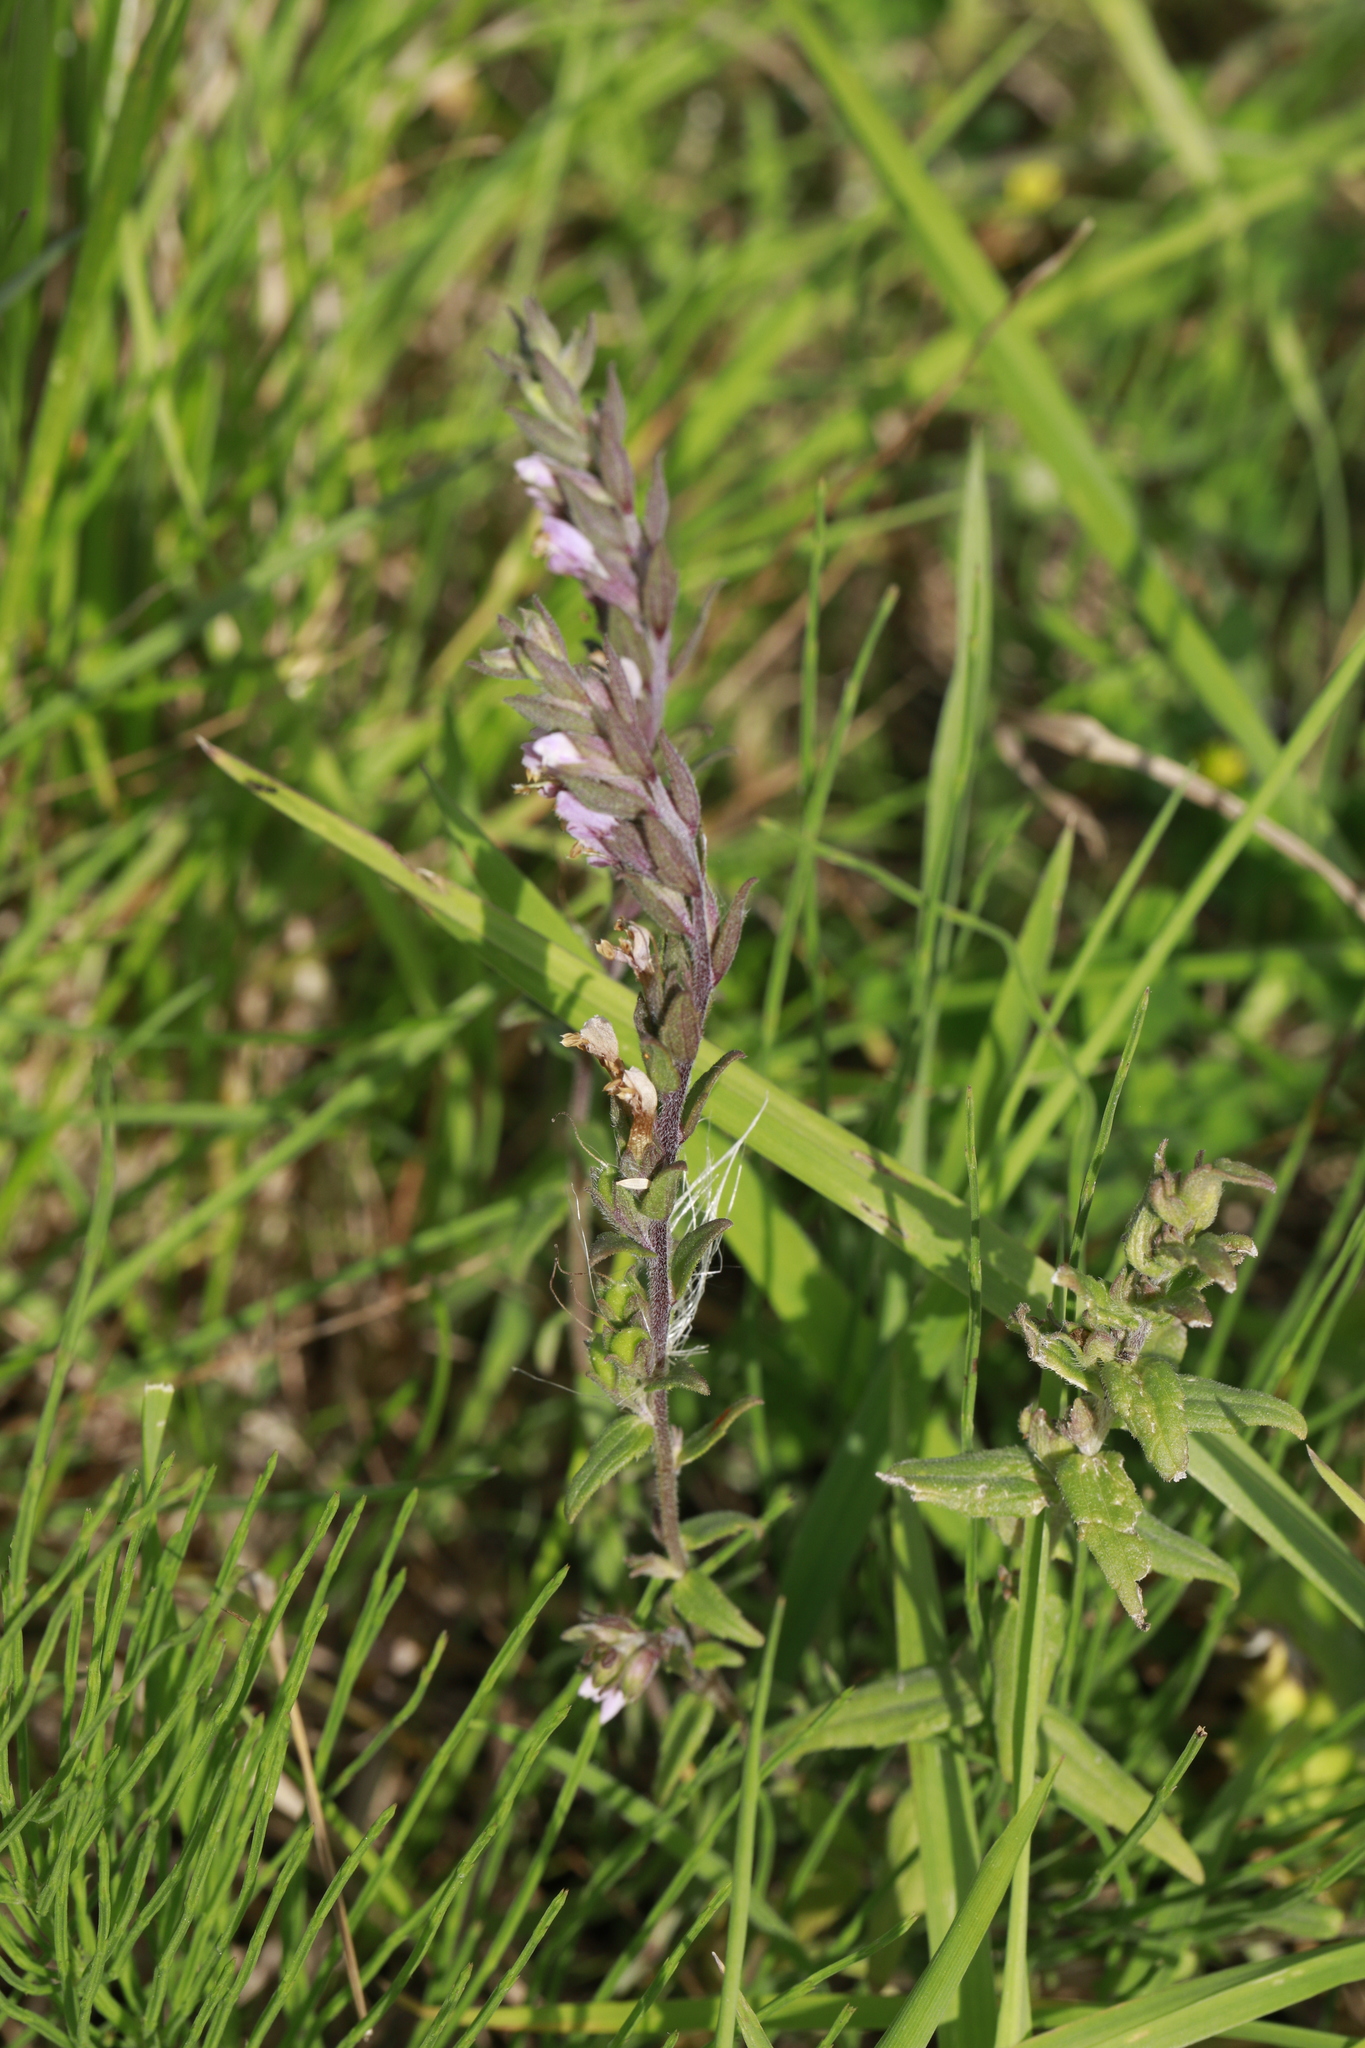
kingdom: Plantae
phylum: Tracheophyta
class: Magnoliopsida
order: Lamiales
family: Orobanchaceae
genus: Odontites
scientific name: Odontites vulgaris
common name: Broomrape
